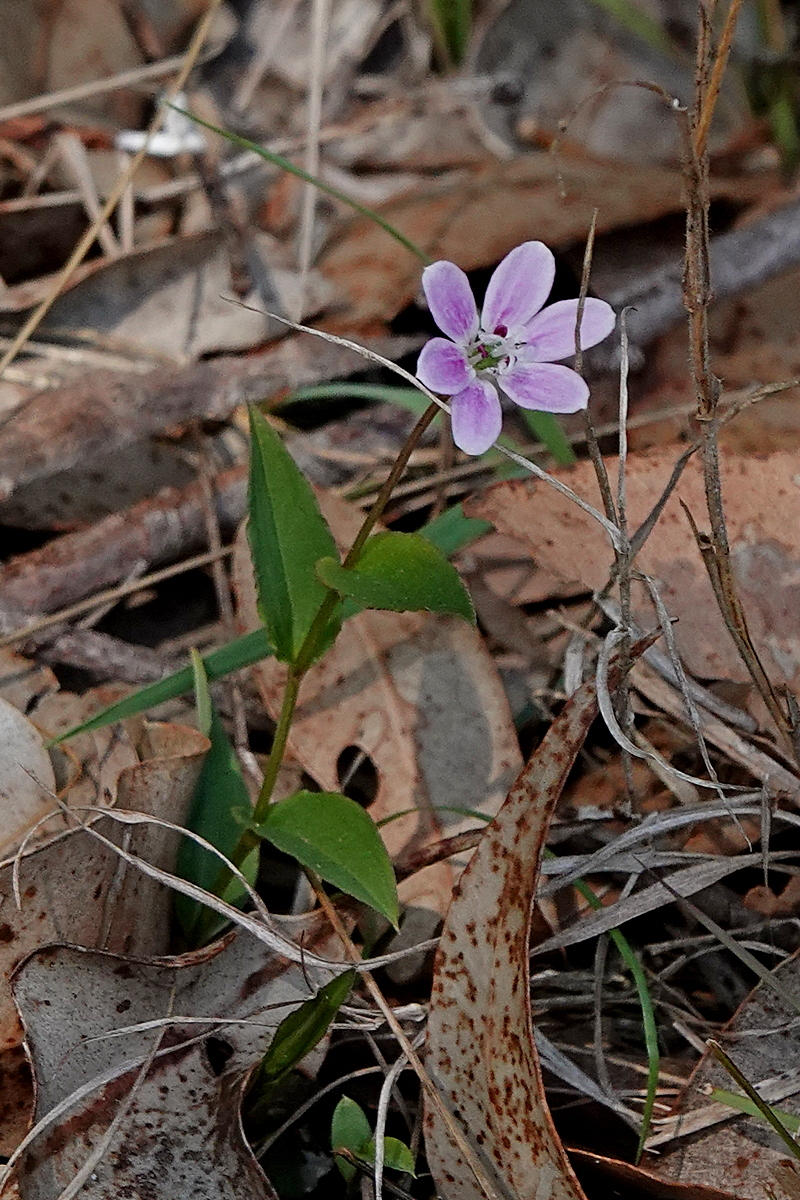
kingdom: Plantae
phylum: Tracheophyta
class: Liliopsida
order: Liliales
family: Colchicaceae
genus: Schelhammera
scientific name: Schelhammera undulata
